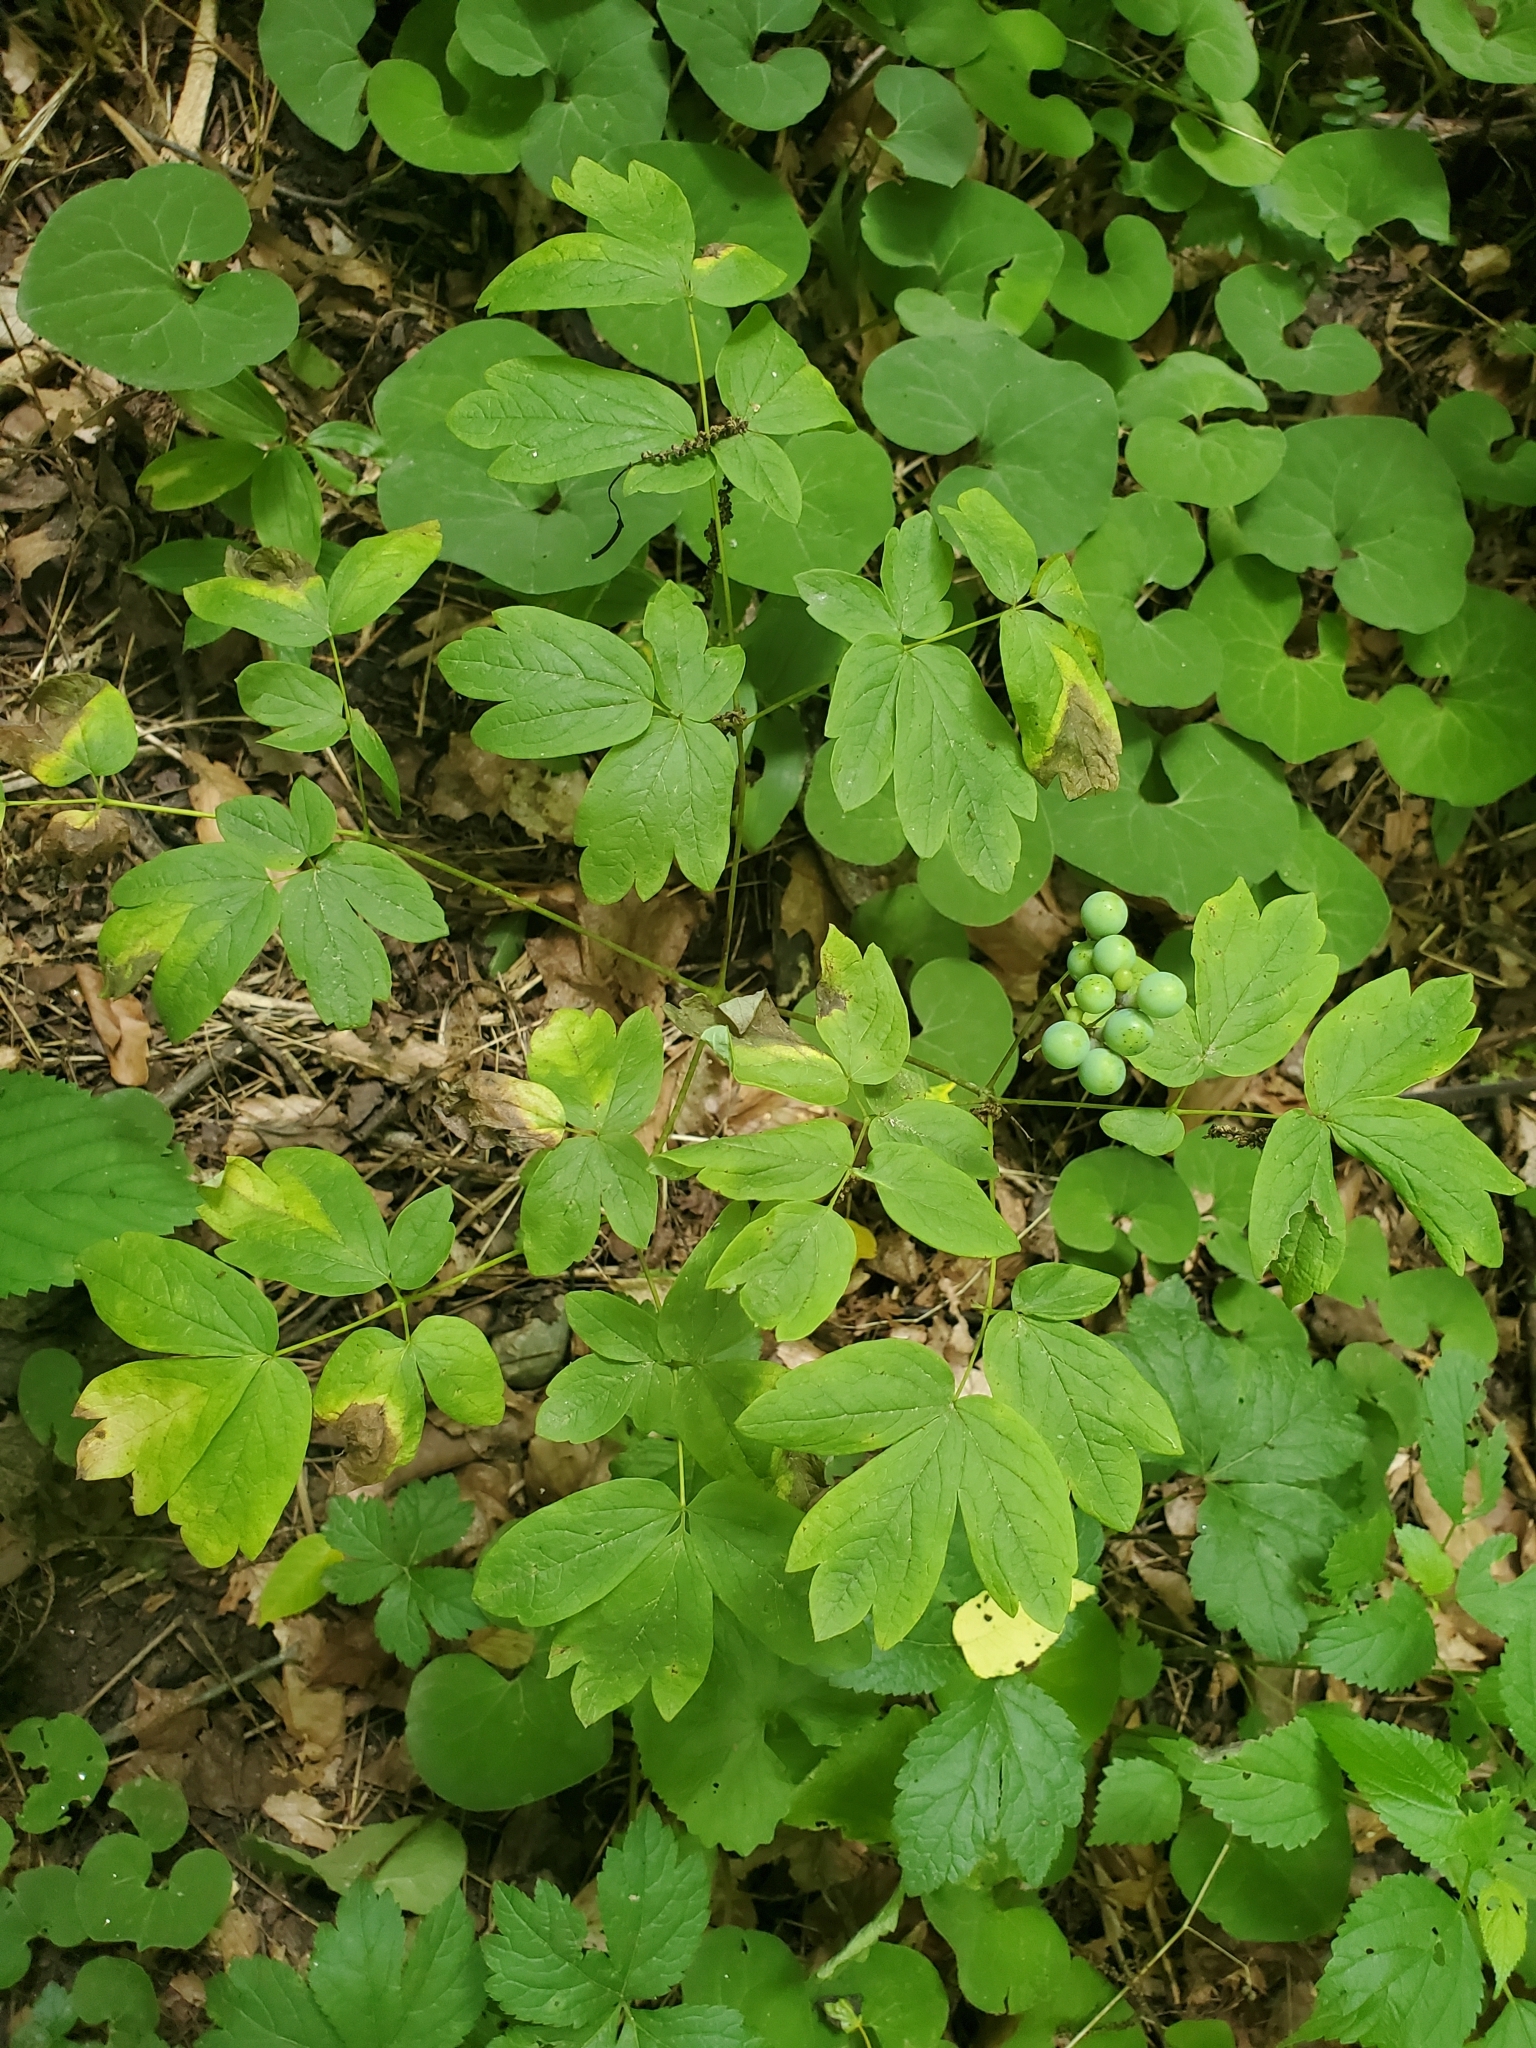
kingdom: Plantae
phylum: Tracheophyta
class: Magnoliopsida
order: Ranunculales
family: Berberidaceae
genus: Caulophyllum
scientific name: Caulophyllum thalictroides
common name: Blue cohosh
